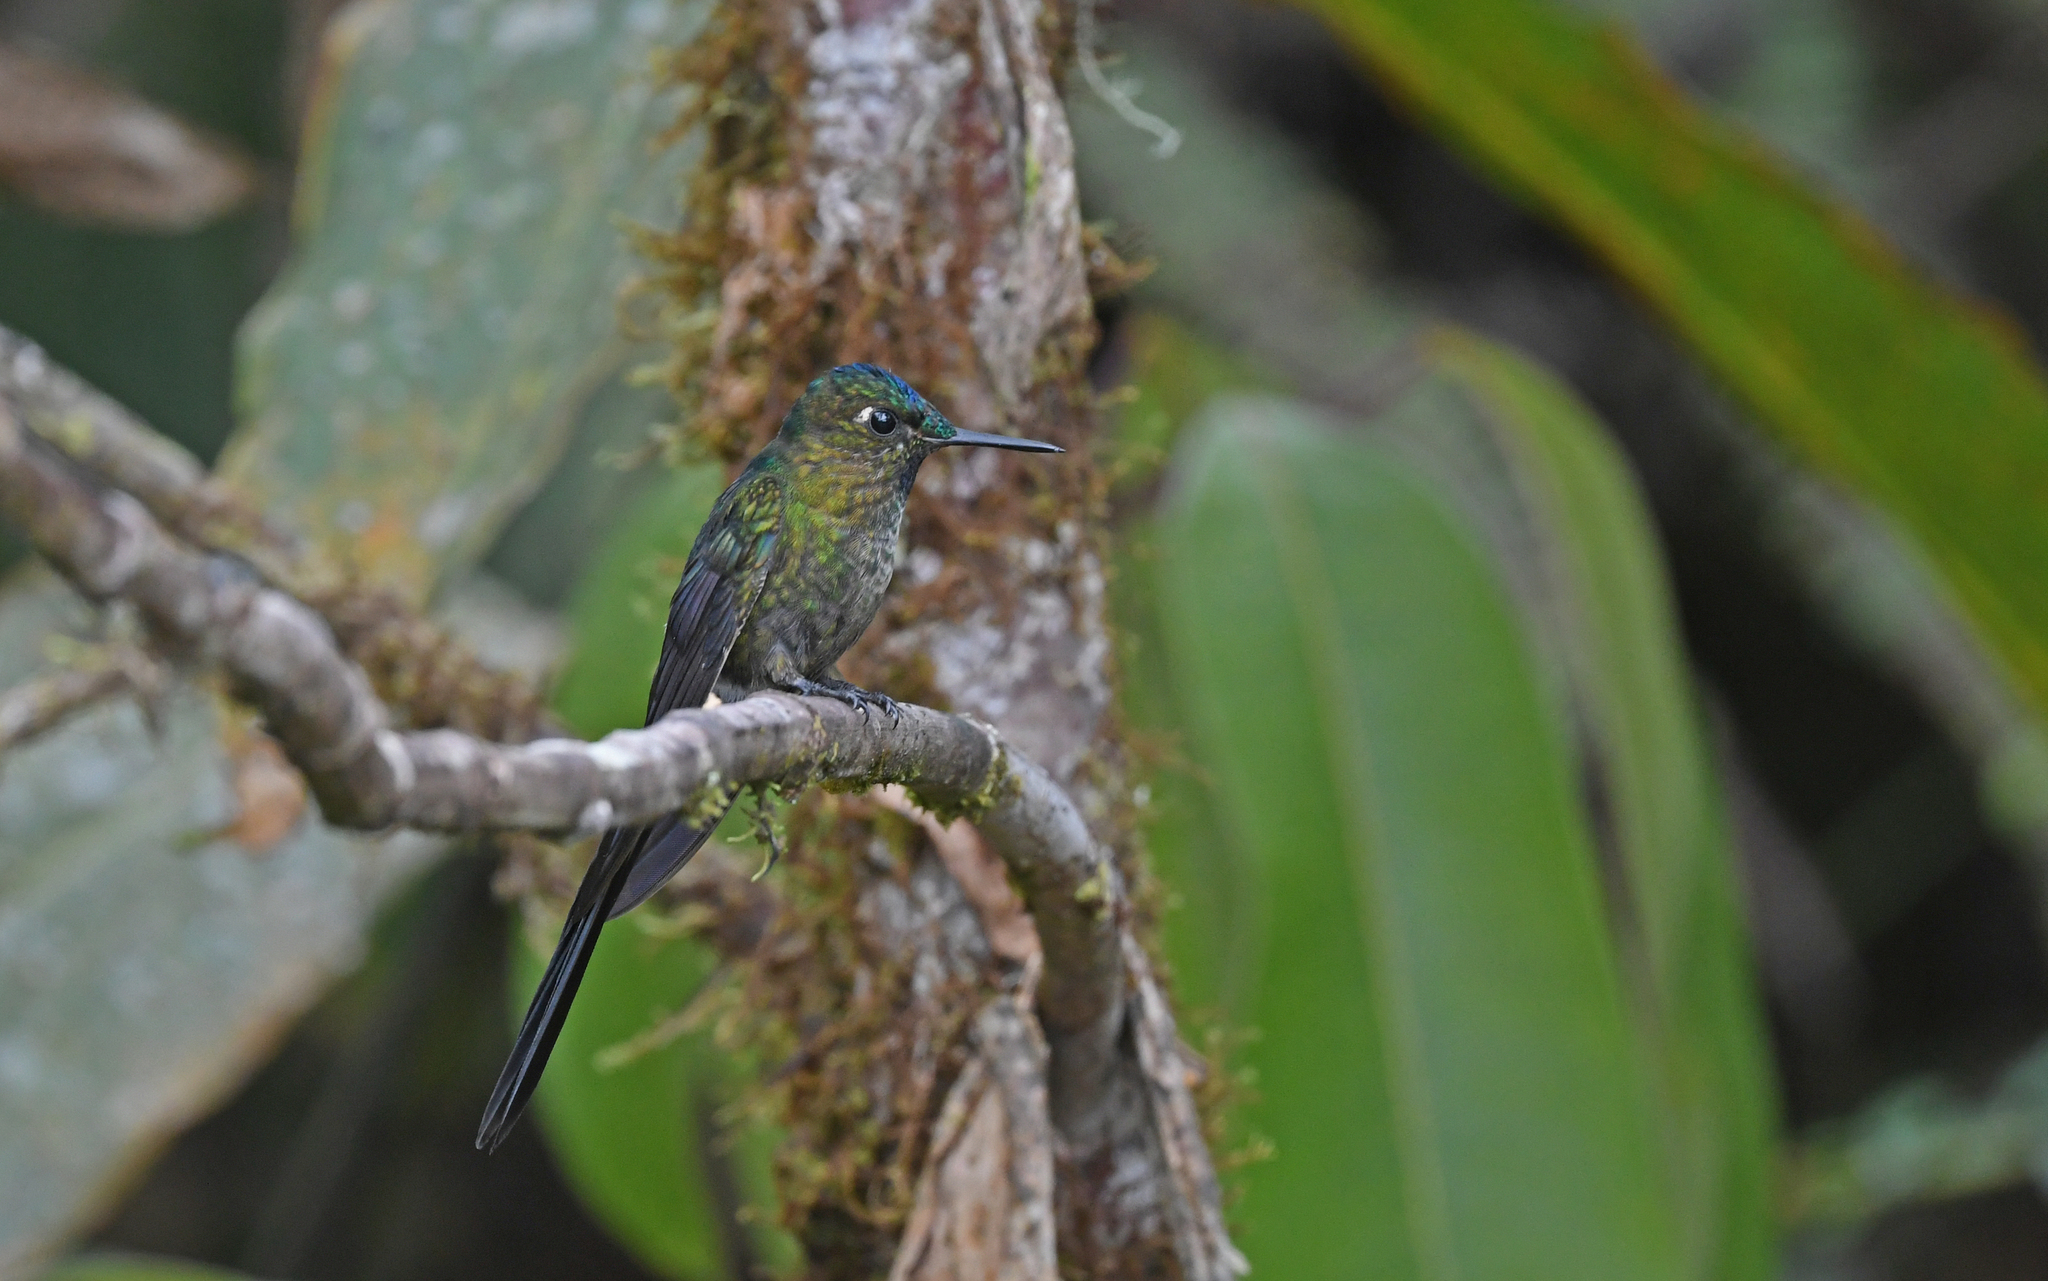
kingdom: Animalia
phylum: Chordata
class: Aves
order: Apodiformes
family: Trochilidae
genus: Aglaiocercus
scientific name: Aglaiocercus coelestis
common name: Violet-tailed sylph
